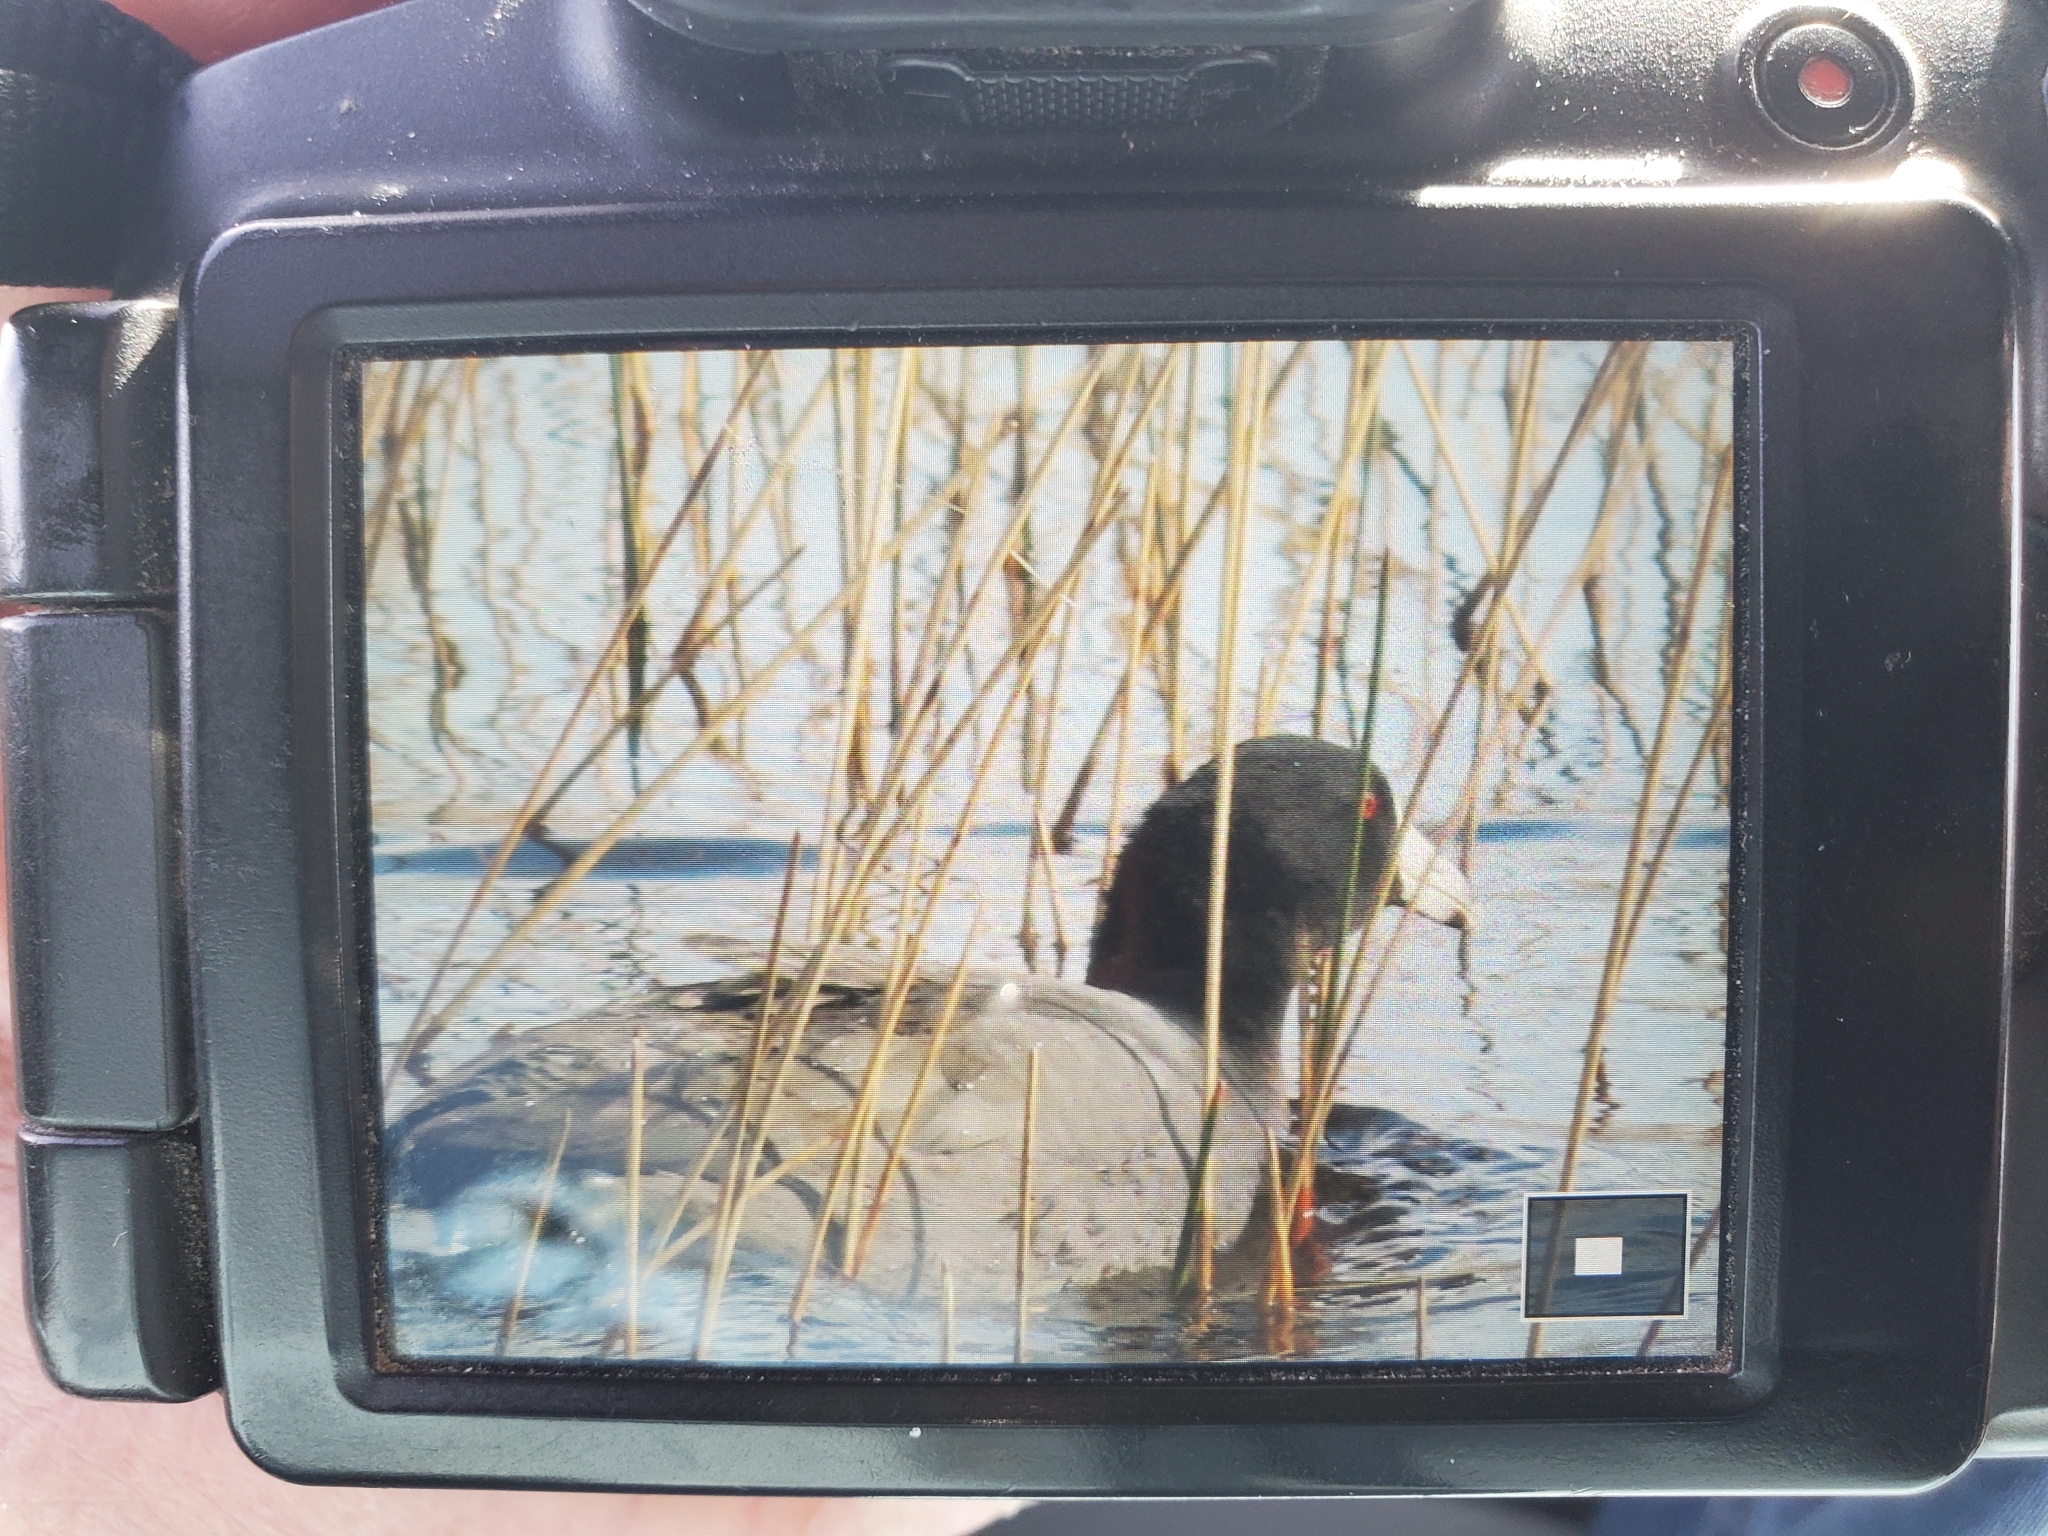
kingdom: Animalia
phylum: Chordata
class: Aves
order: Gruiformes
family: Rallidae
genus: Fulica
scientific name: Fulica americana
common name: American coot
